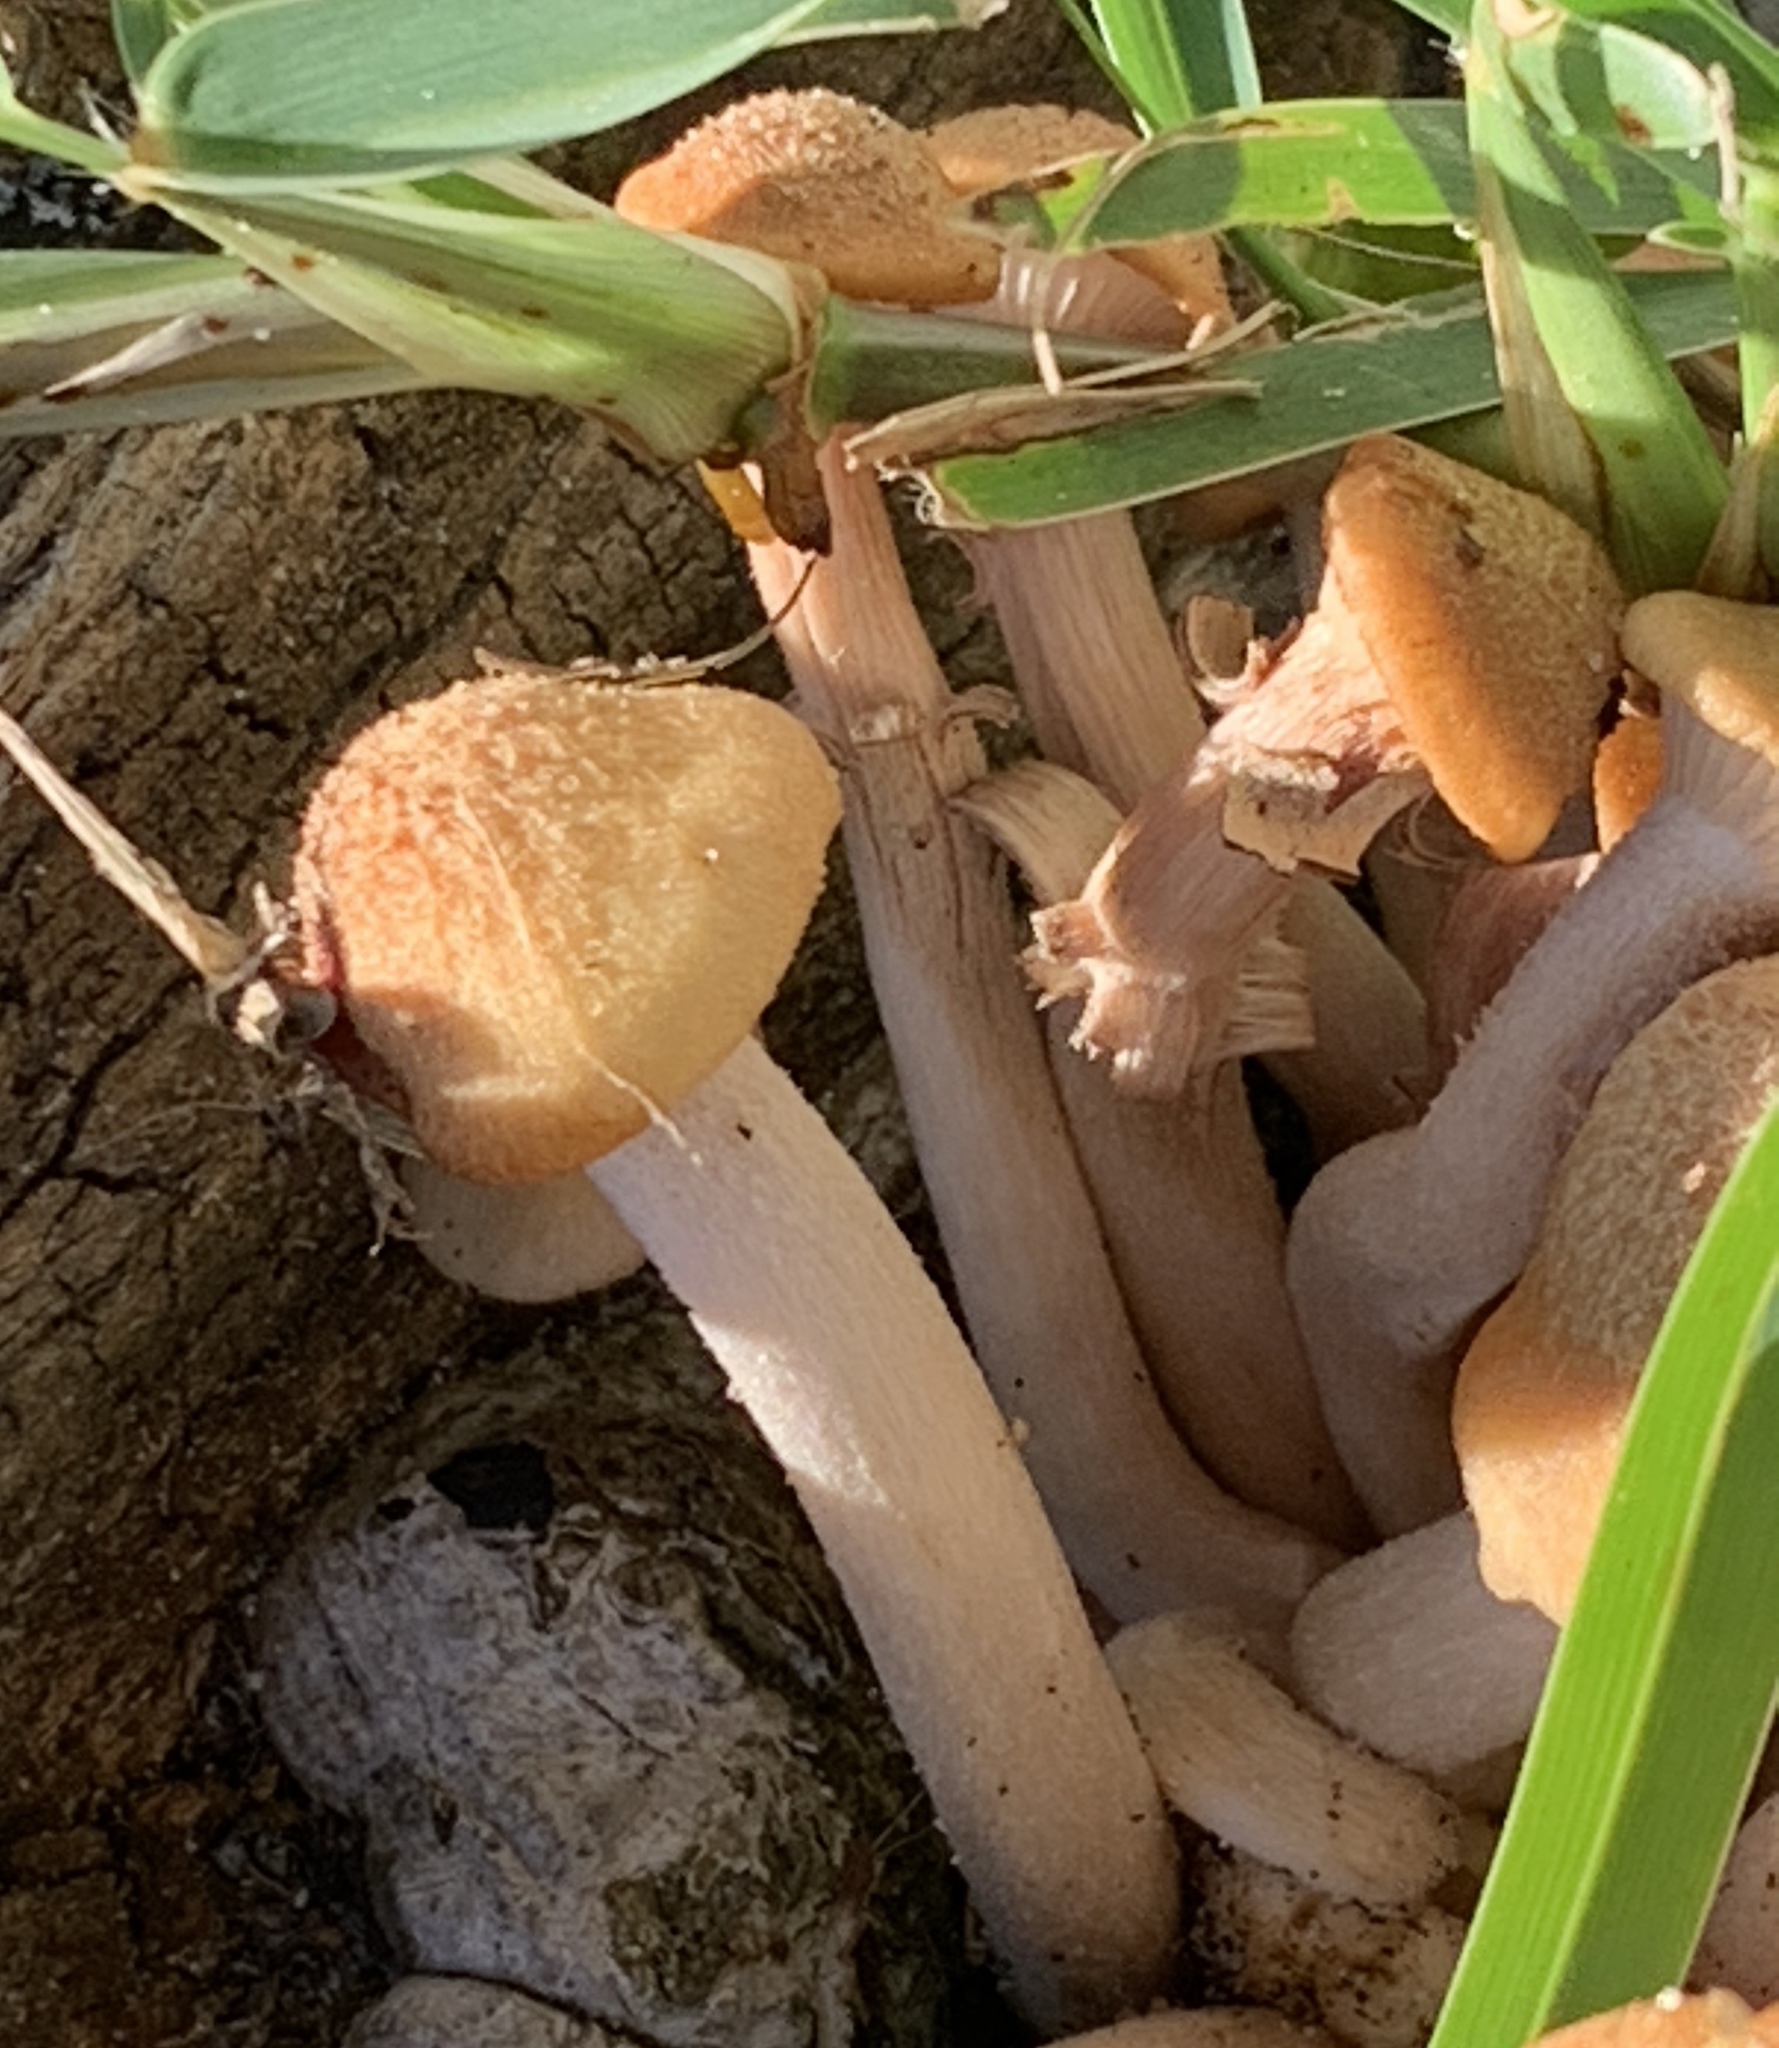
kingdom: Fungi
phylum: Basidiomycota
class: Agaricomycetes
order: Agaricales
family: Physalacriaceae
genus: Desarmillaria
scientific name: Desarmillaria caespitosa
